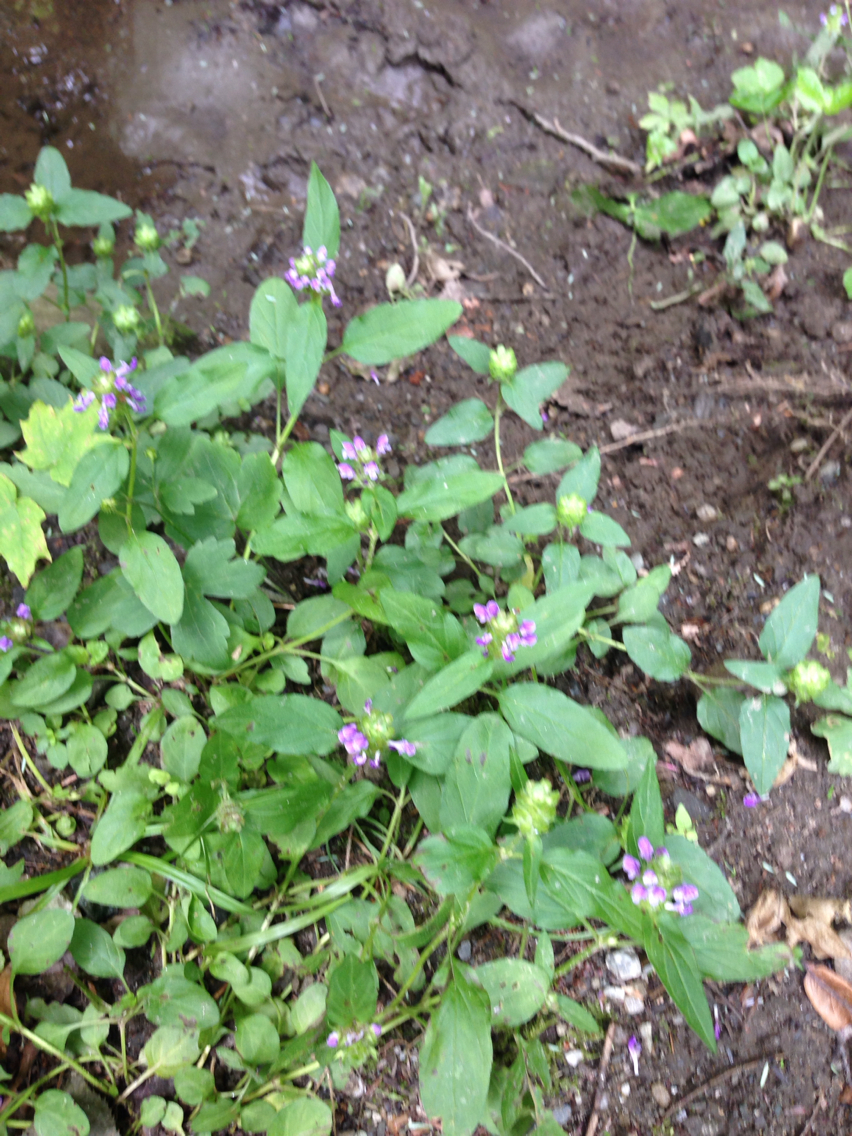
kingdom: Plantae
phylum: Tracheophyta
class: Magnoliopsida
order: Lamiales
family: Lamiaceae
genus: Prunella
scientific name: Prunella vulgaris
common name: Heal-all
